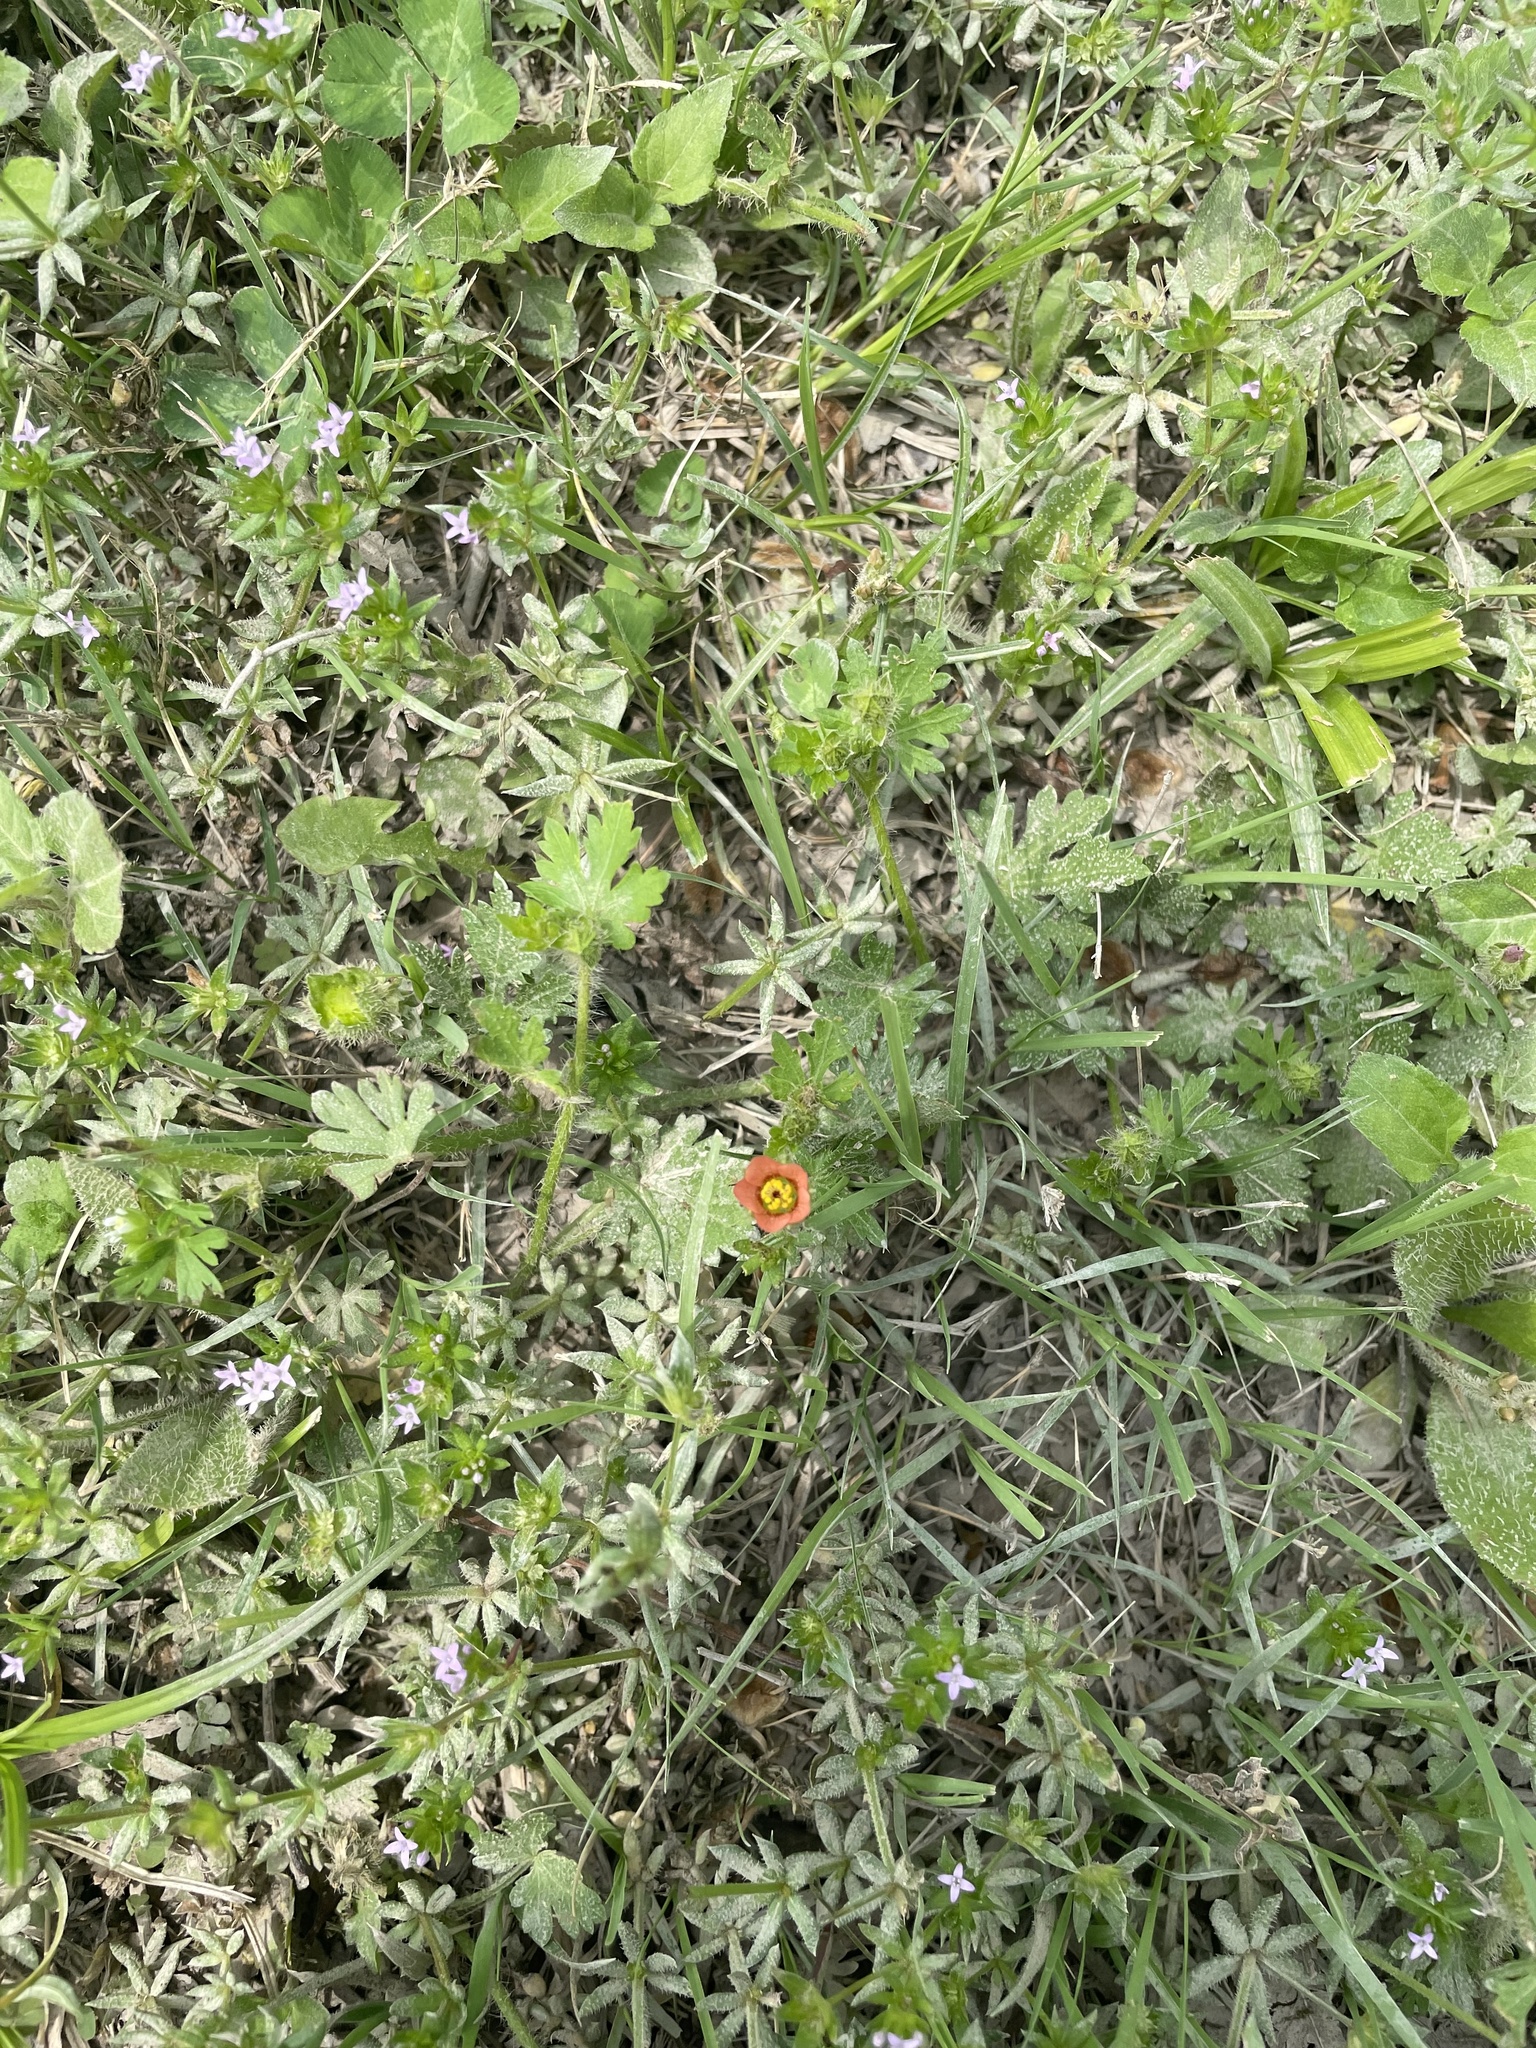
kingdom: Plantae
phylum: Tracheophyta
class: Magnoliopsida
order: Malvales
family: Malvaceae
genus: Modiola
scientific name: Modiola caroliniana
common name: Carolina bristlemallow
